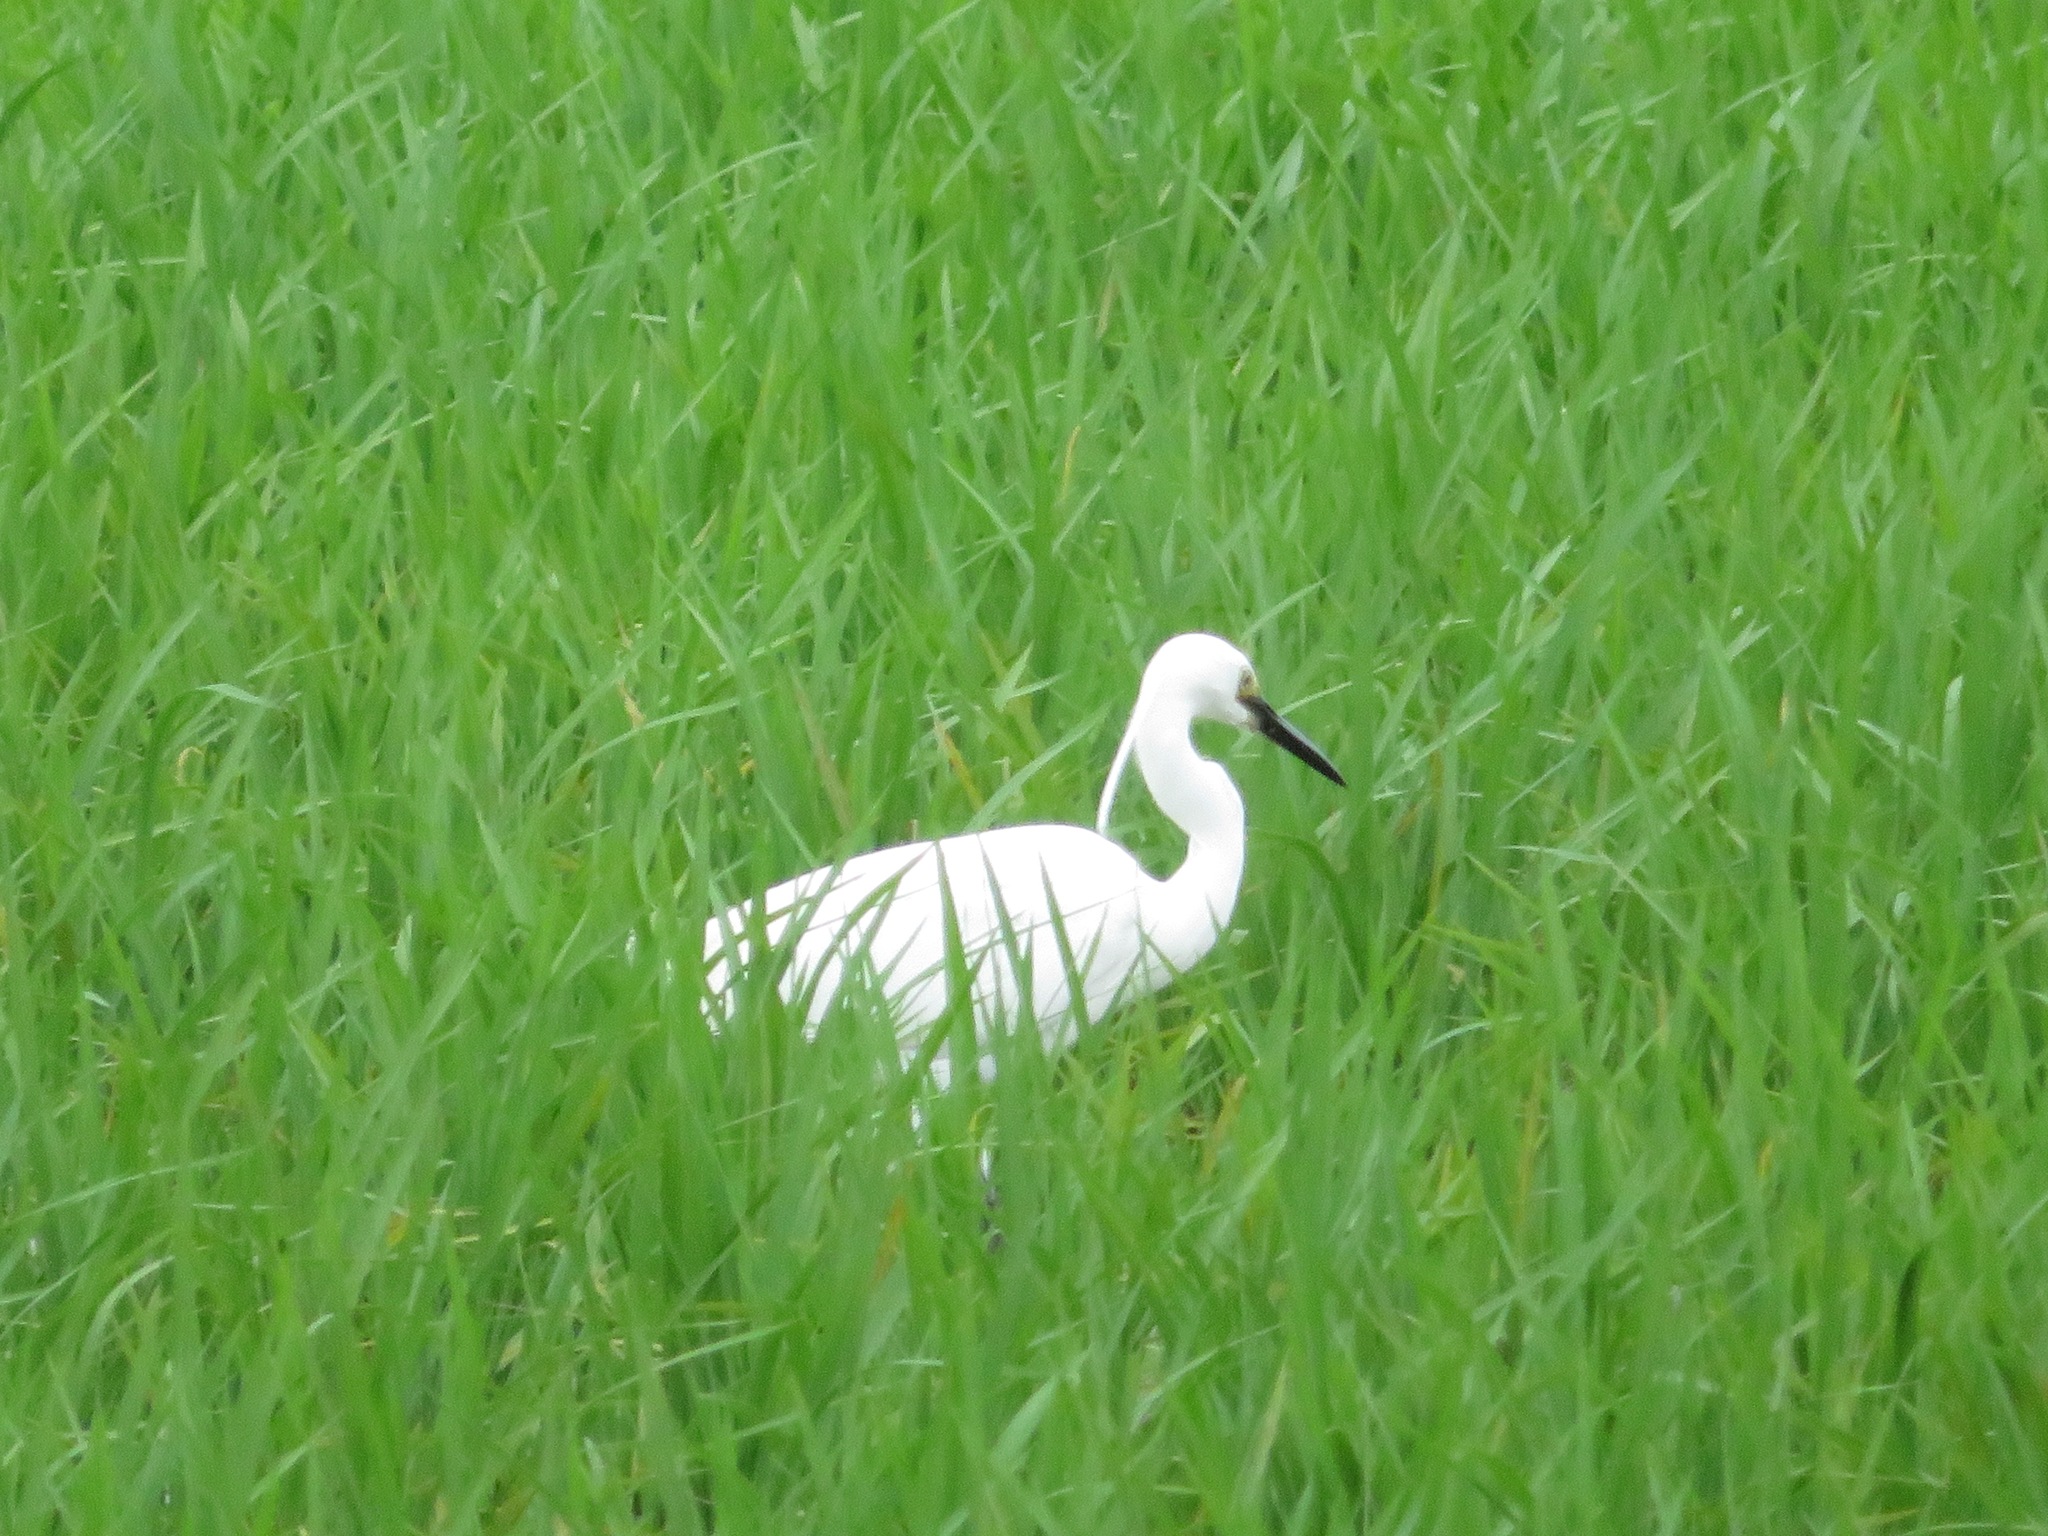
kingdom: Animalia
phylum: Chordata
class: Aves
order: Pelecaniformes
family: Ardeidae
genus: Egretta
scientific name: Egretta garzetta
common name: Little egret
